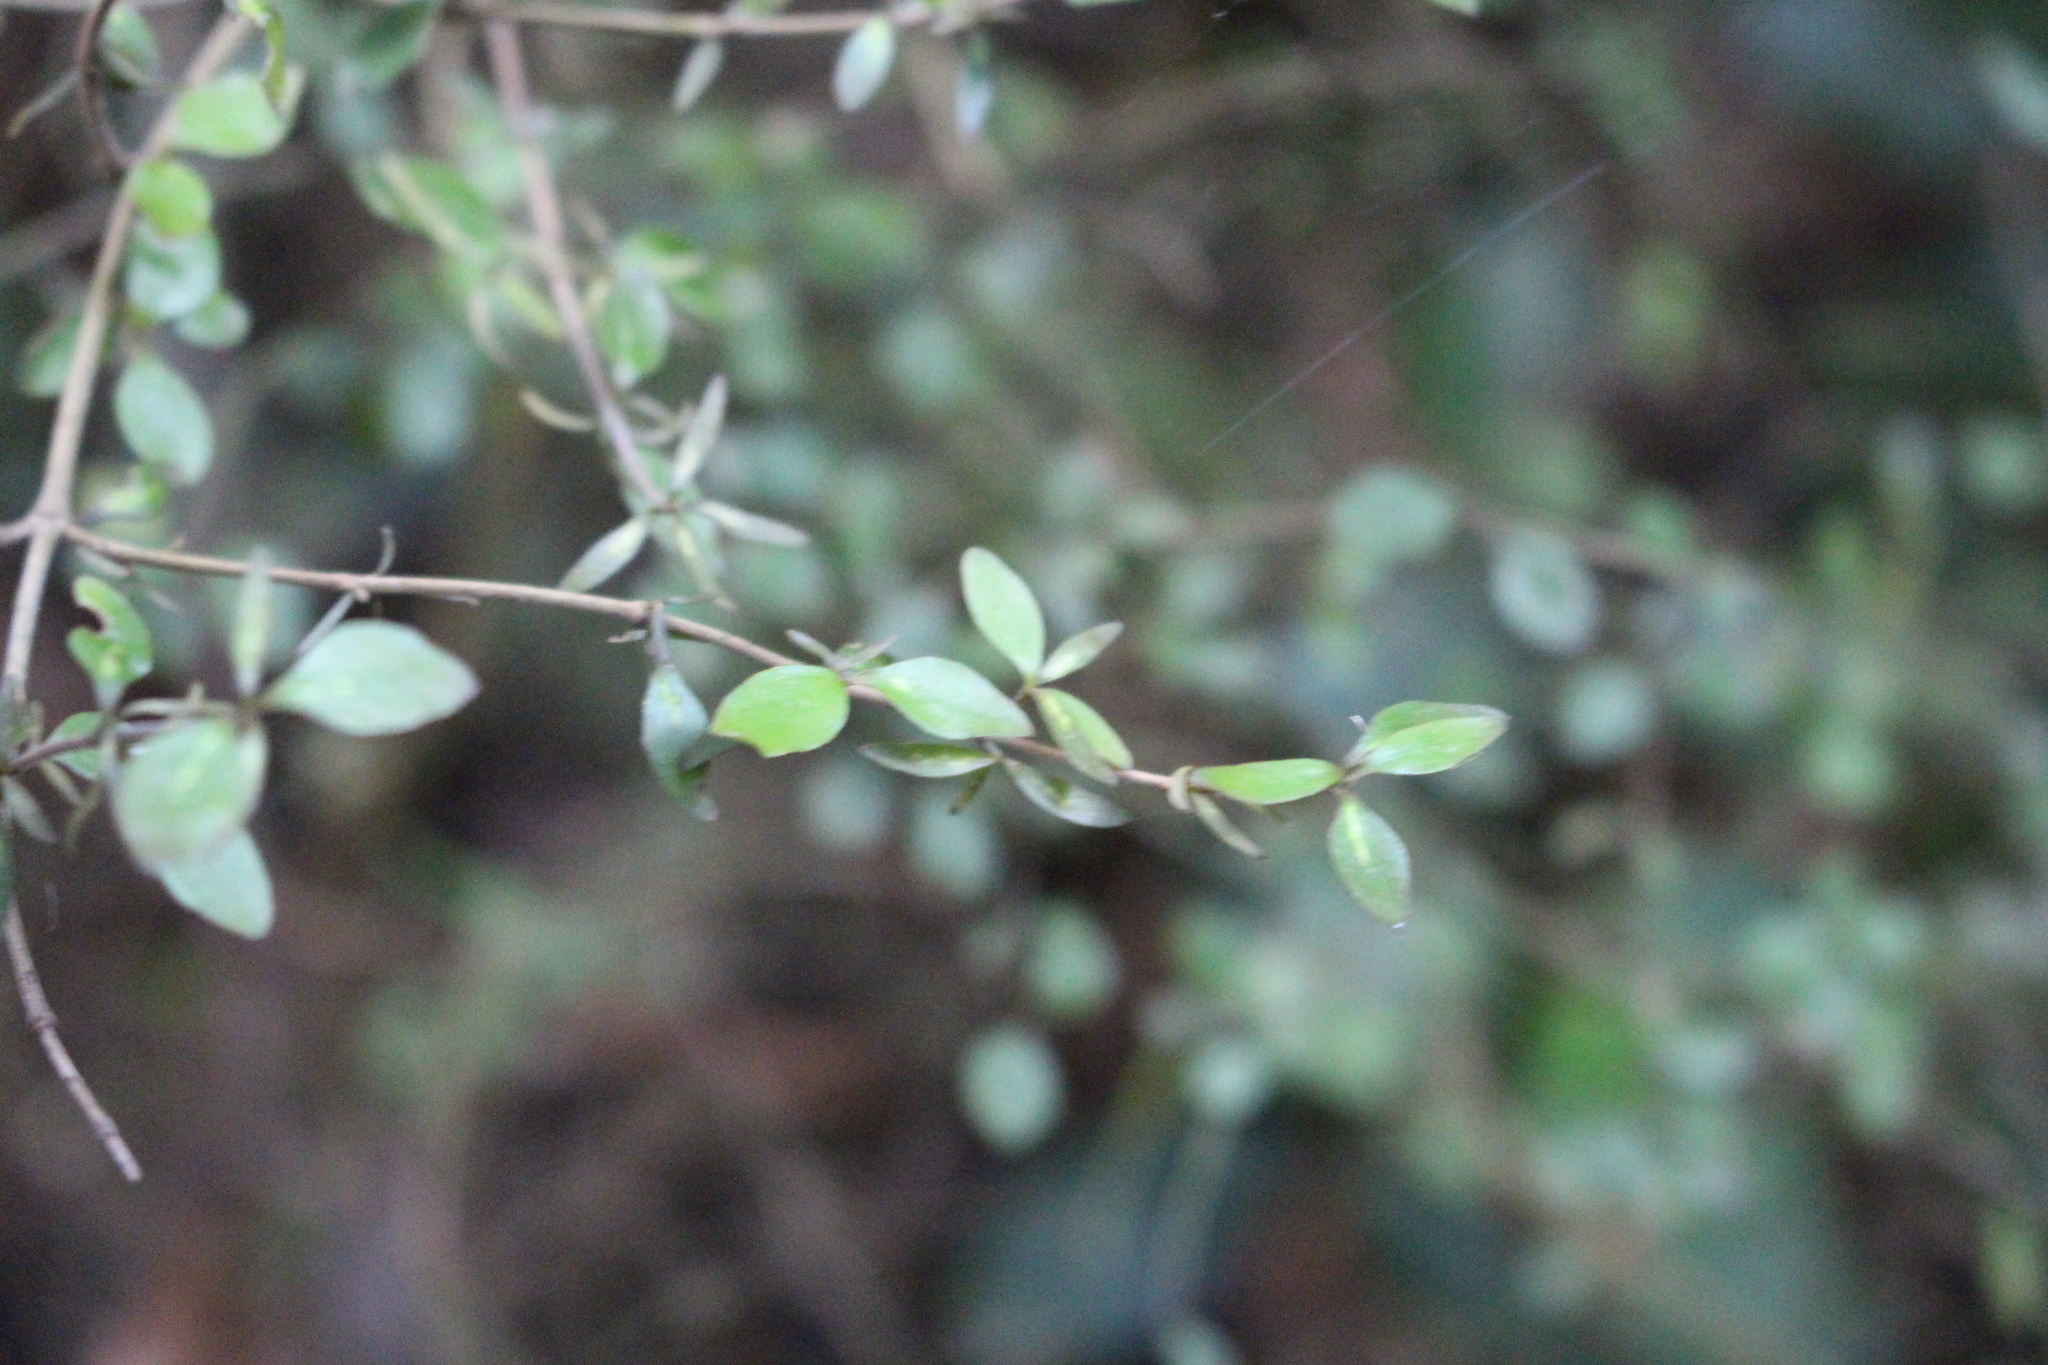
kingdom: Plantae
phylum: Tracheophyta
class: Magnoliopsida
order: Gentianales
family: Rubiaceae
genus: Coprosma
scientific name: Coprosma rhamnoides
